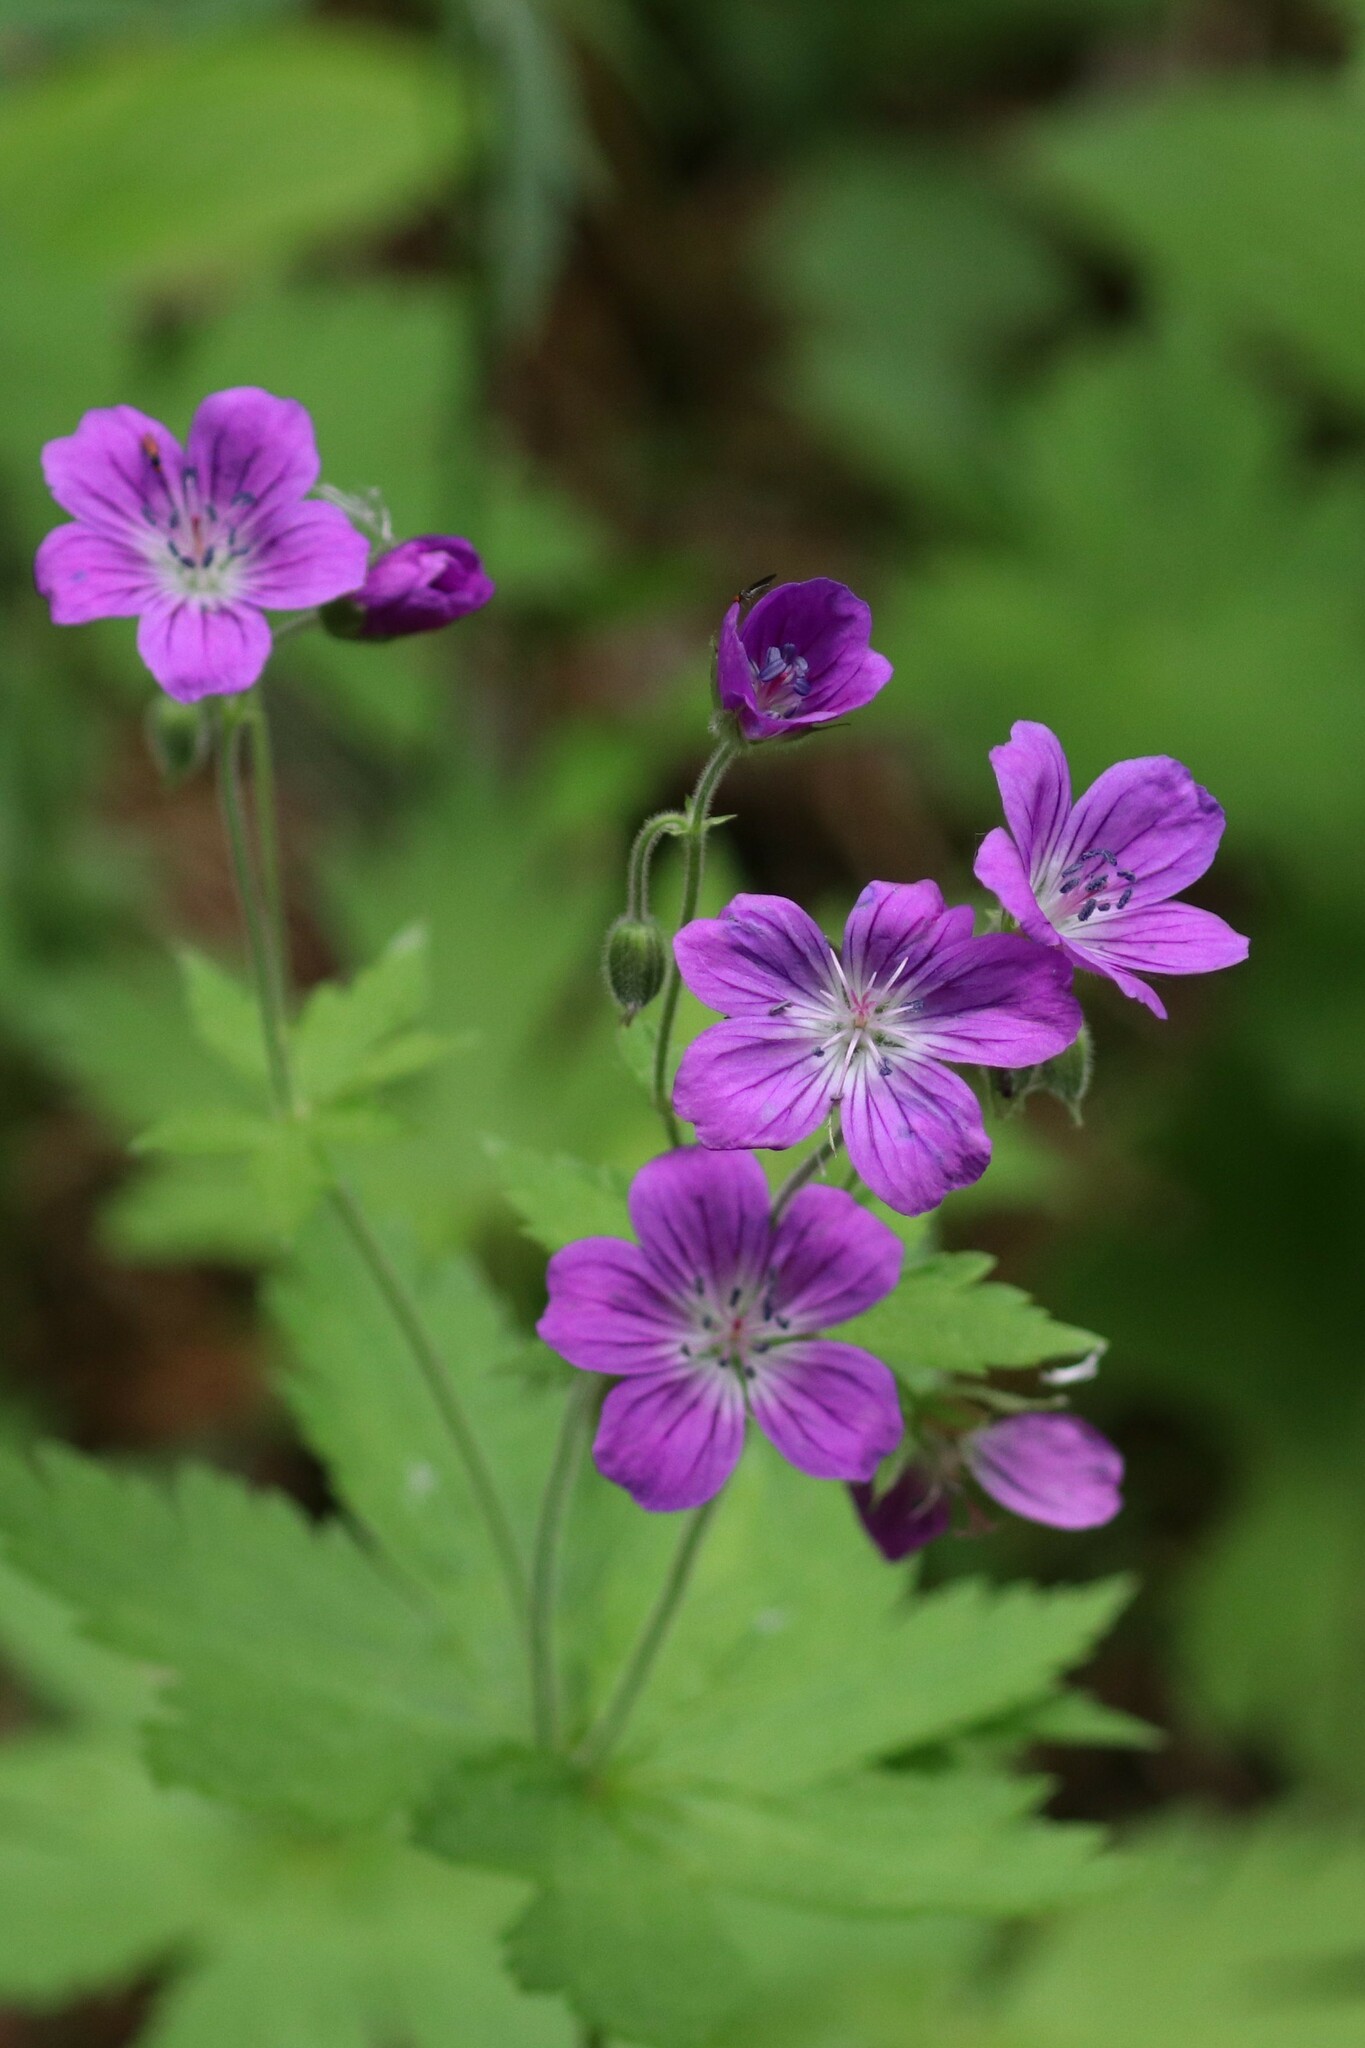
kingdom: Plantae
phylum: Tracheophyta
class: Magnoliopsida
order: Geraniales
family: Geraniaceae
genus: Geranium
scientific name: Geranium sylvaticum
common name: Wood crane's-bill
